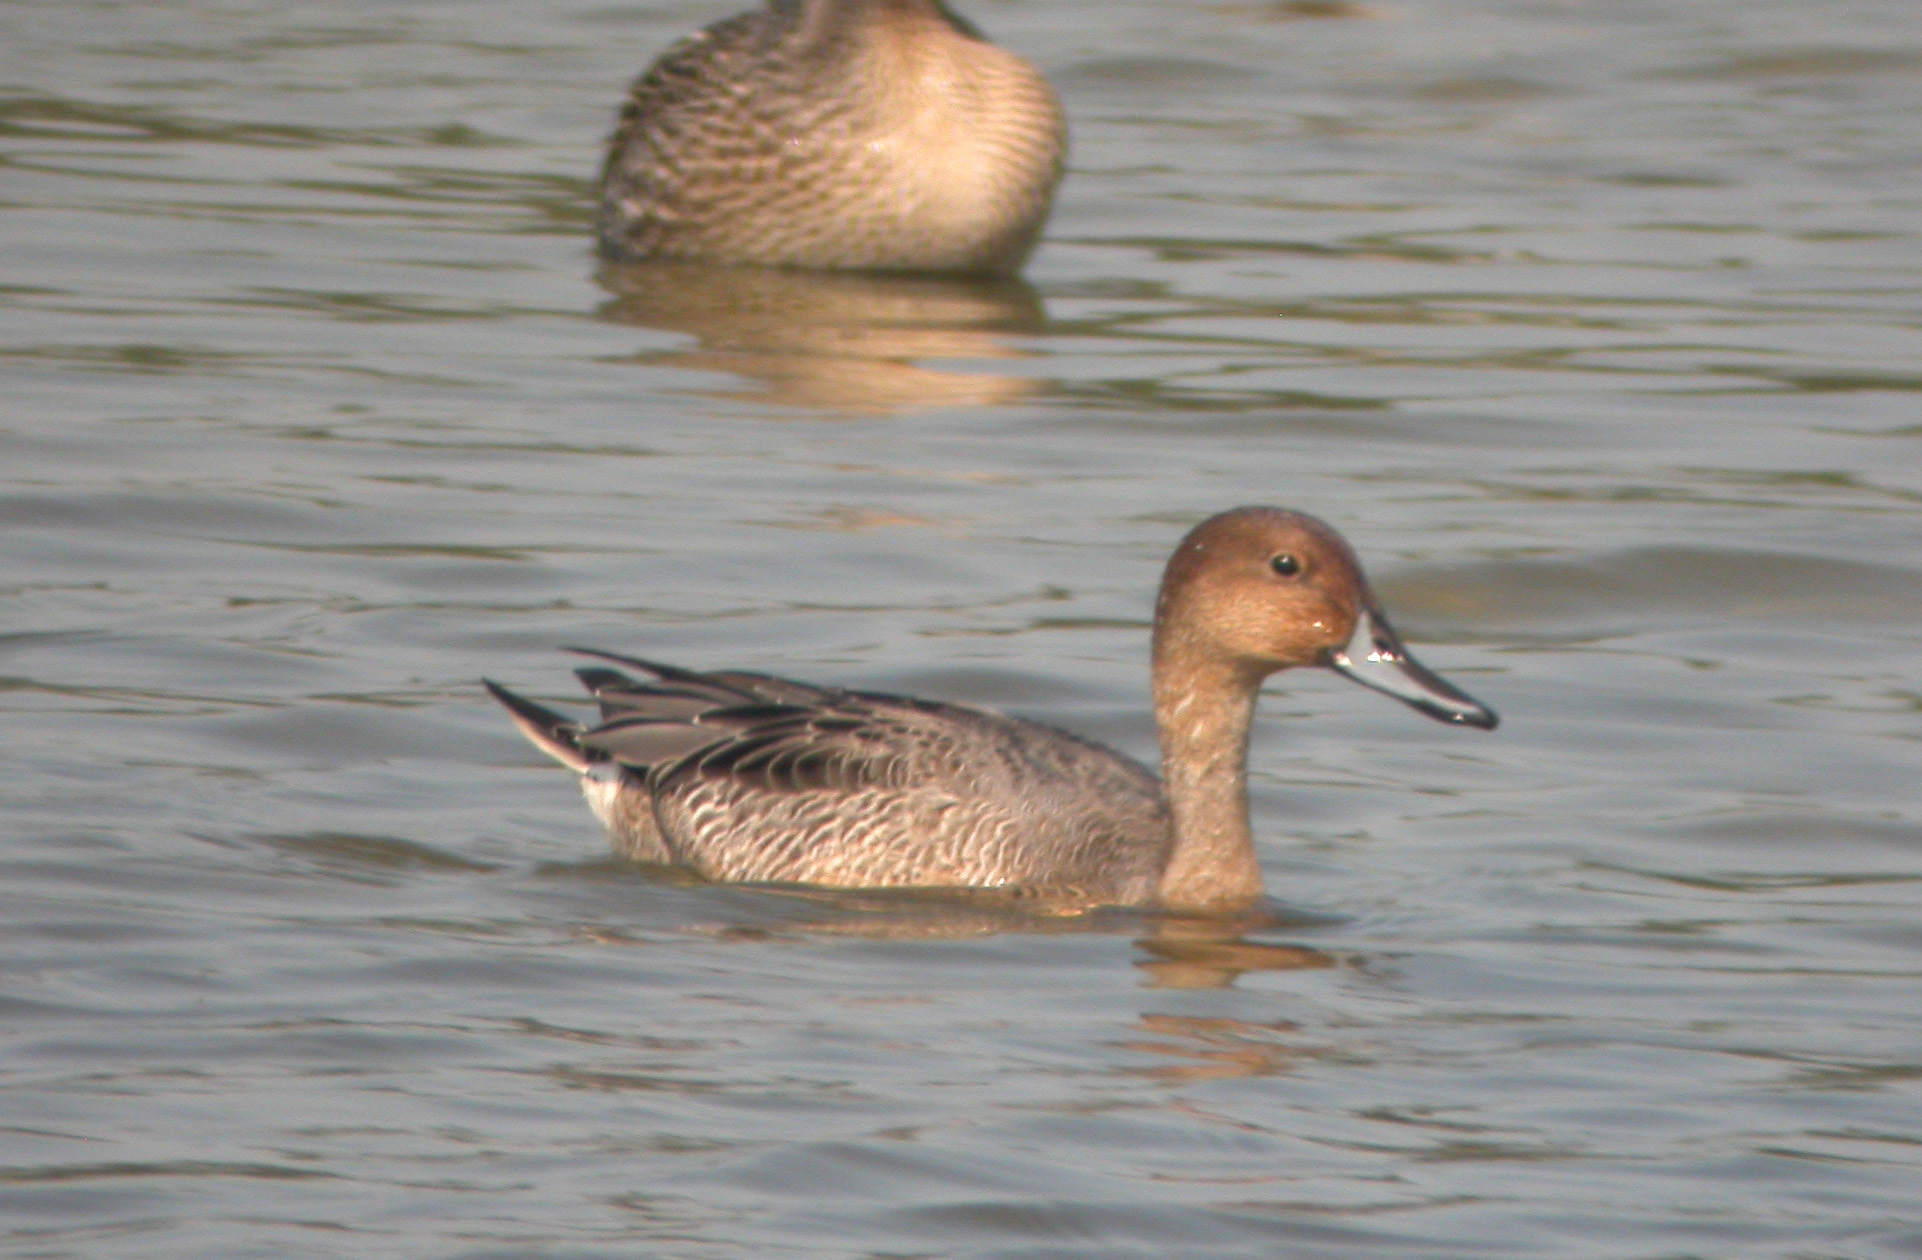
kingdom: Animalia
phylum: Chordata
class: Aves
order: Anseriformes
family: Anatidae
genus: Anas
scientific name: Anas acuta
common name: Northern pintail
